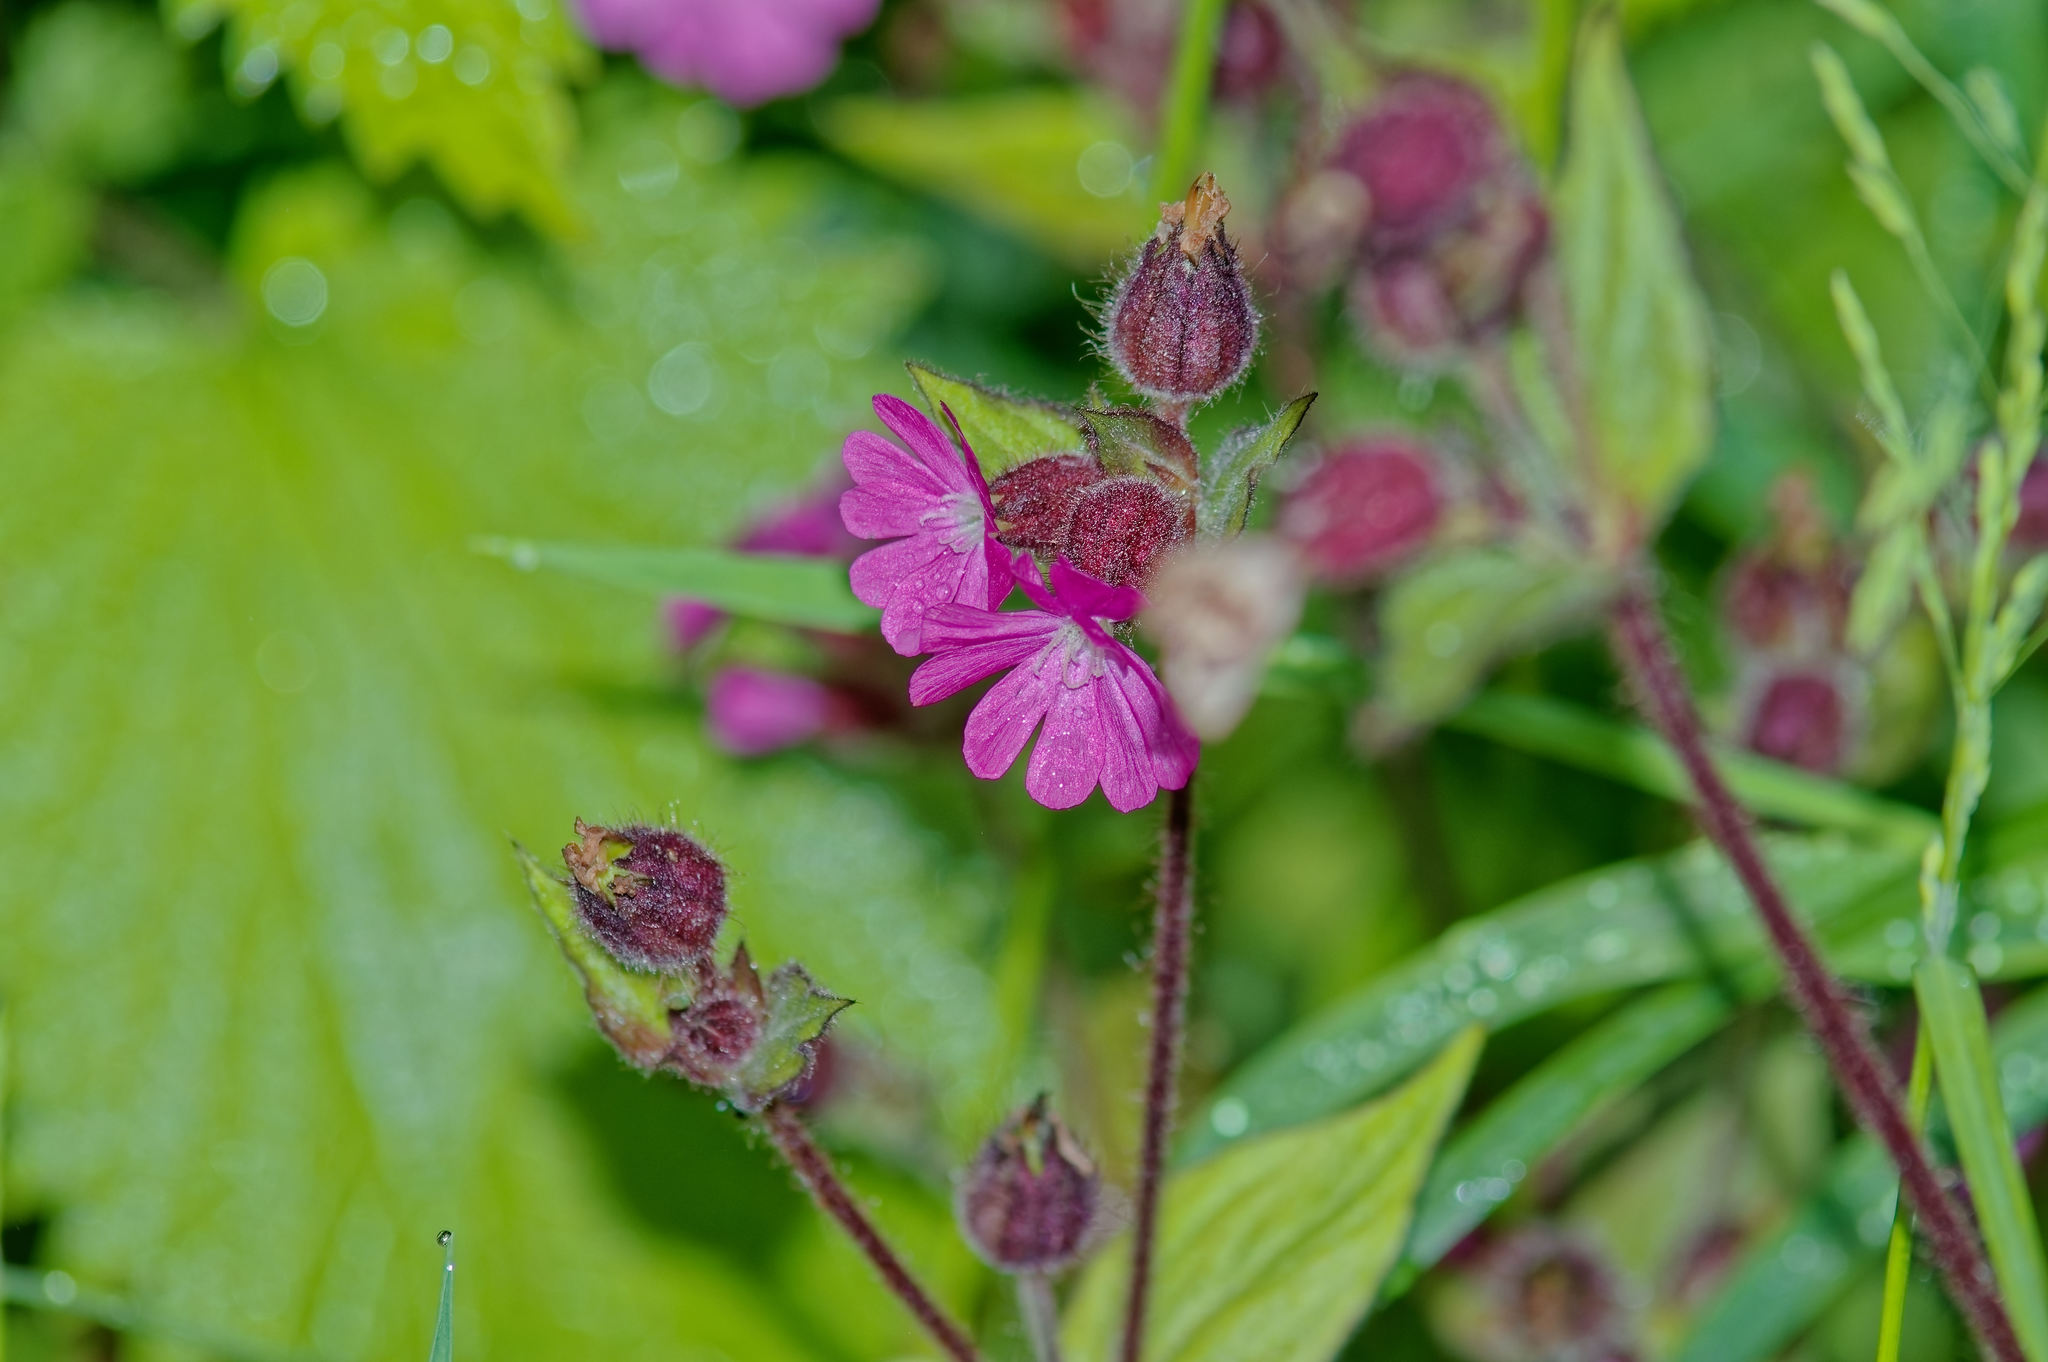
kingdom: Plantae
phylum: Tracheophyta
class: Magnoliopsida
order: Caryophyllales
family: Caryophyllaceae
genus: Silene
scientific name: Silene dioica
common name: Red campion
